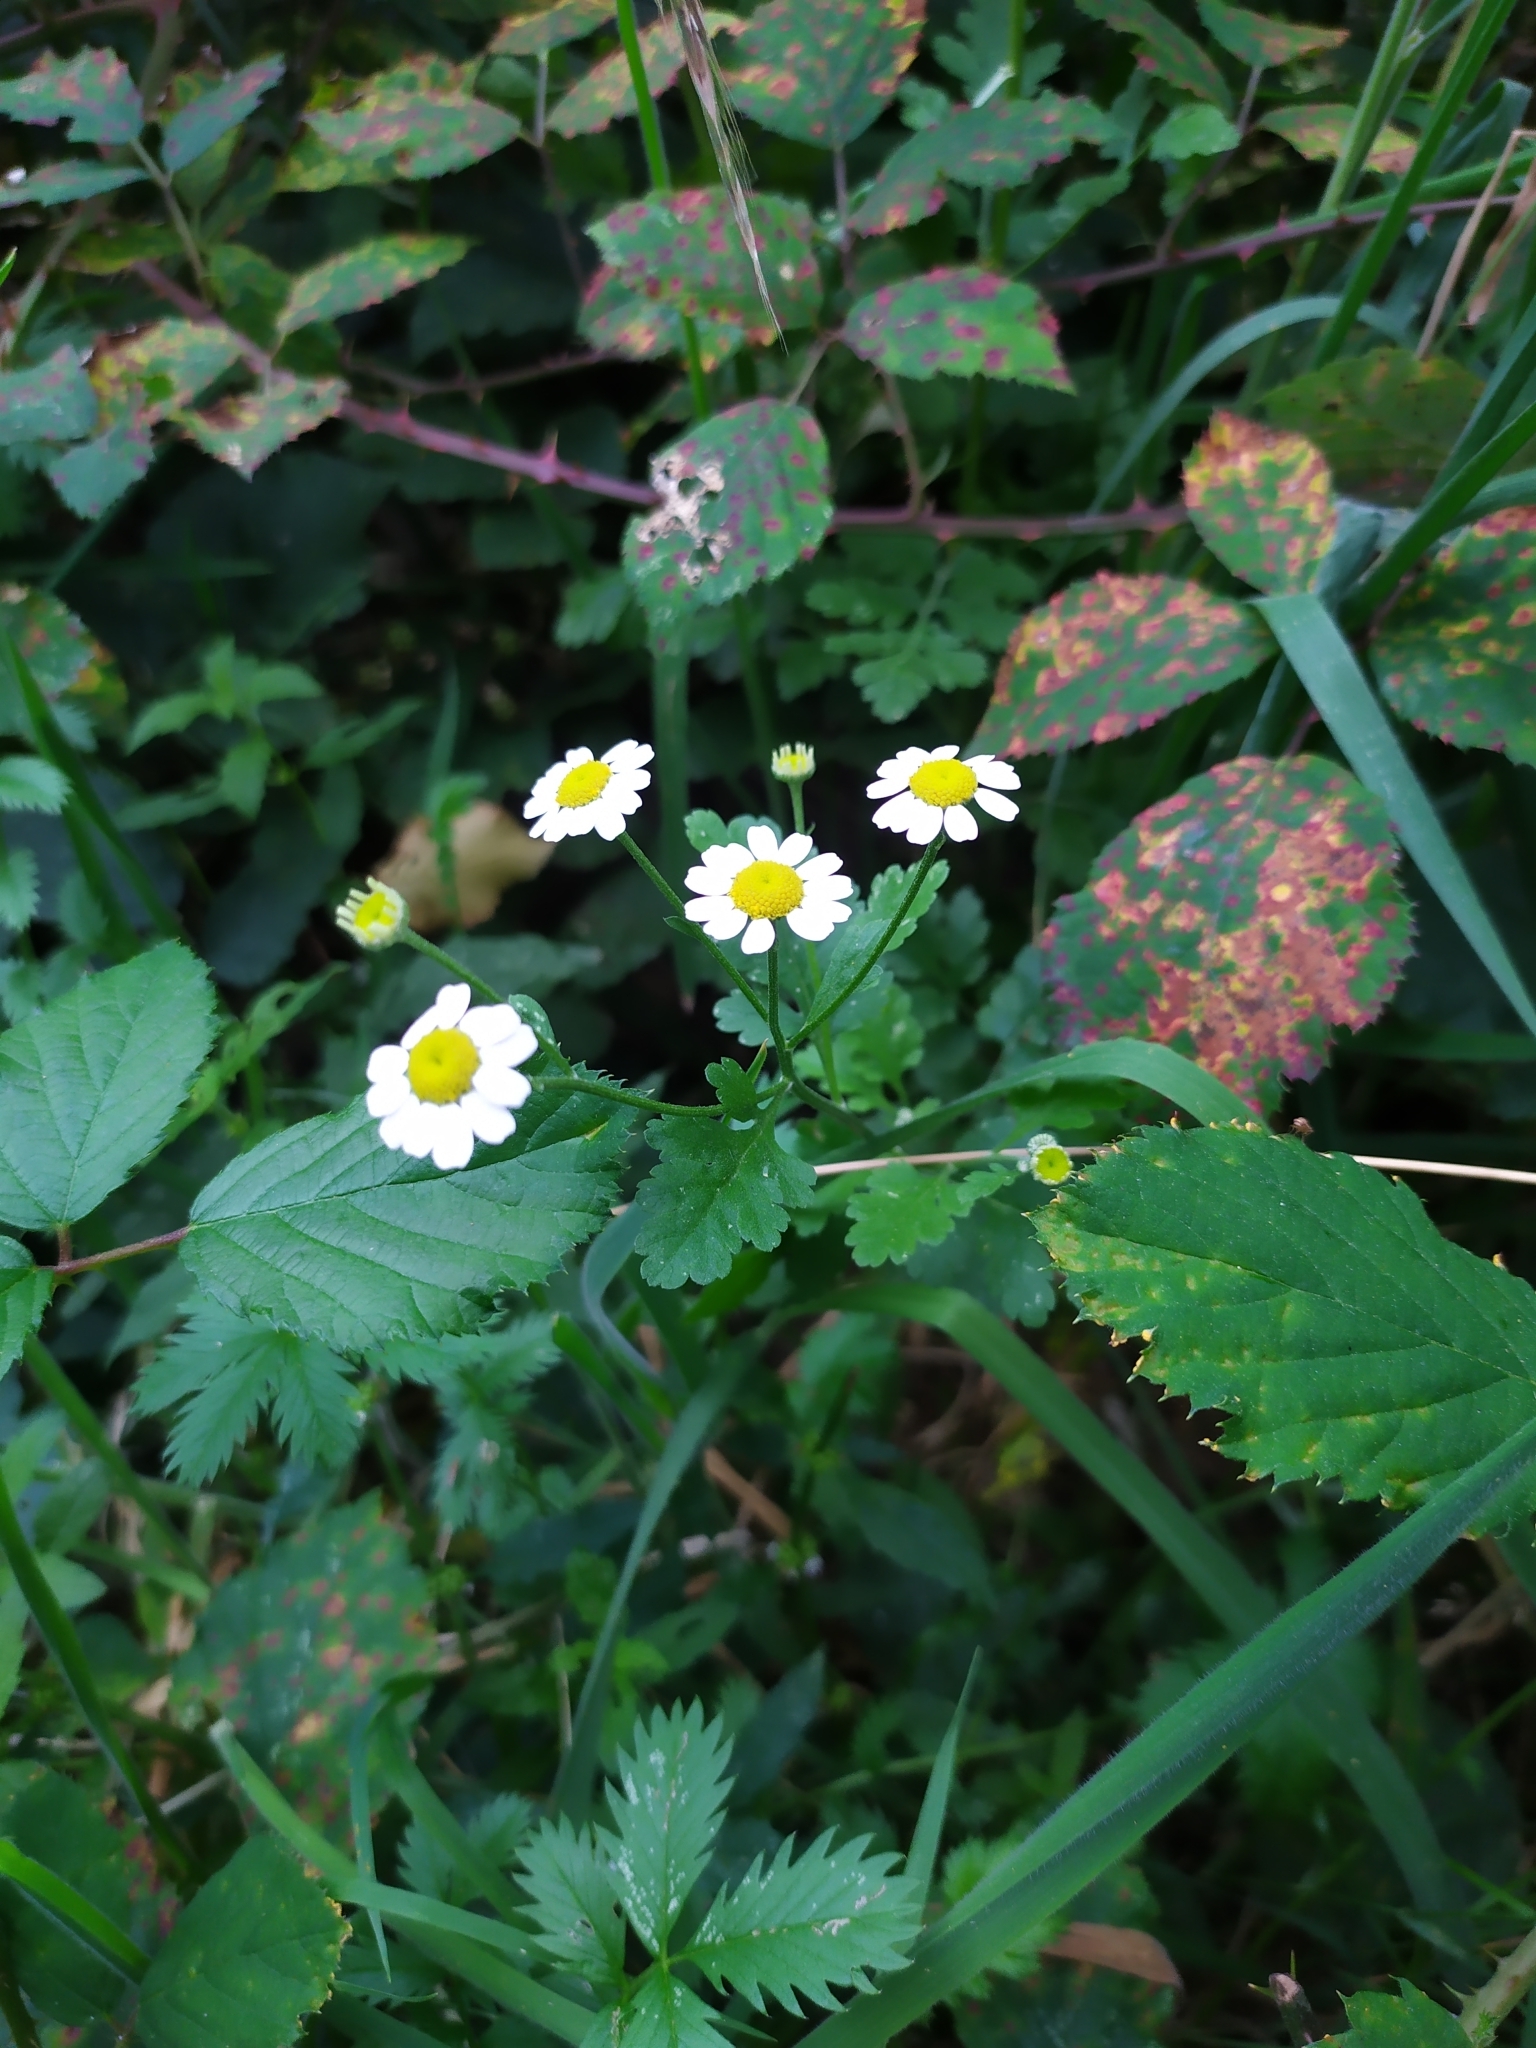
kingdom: Plantae
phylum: Tracheophyta
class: Magnoliopsida
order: Asterales
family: Asteraceae
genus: Tanacetum
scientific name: Tanacetum parthenium
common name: Feverfew
